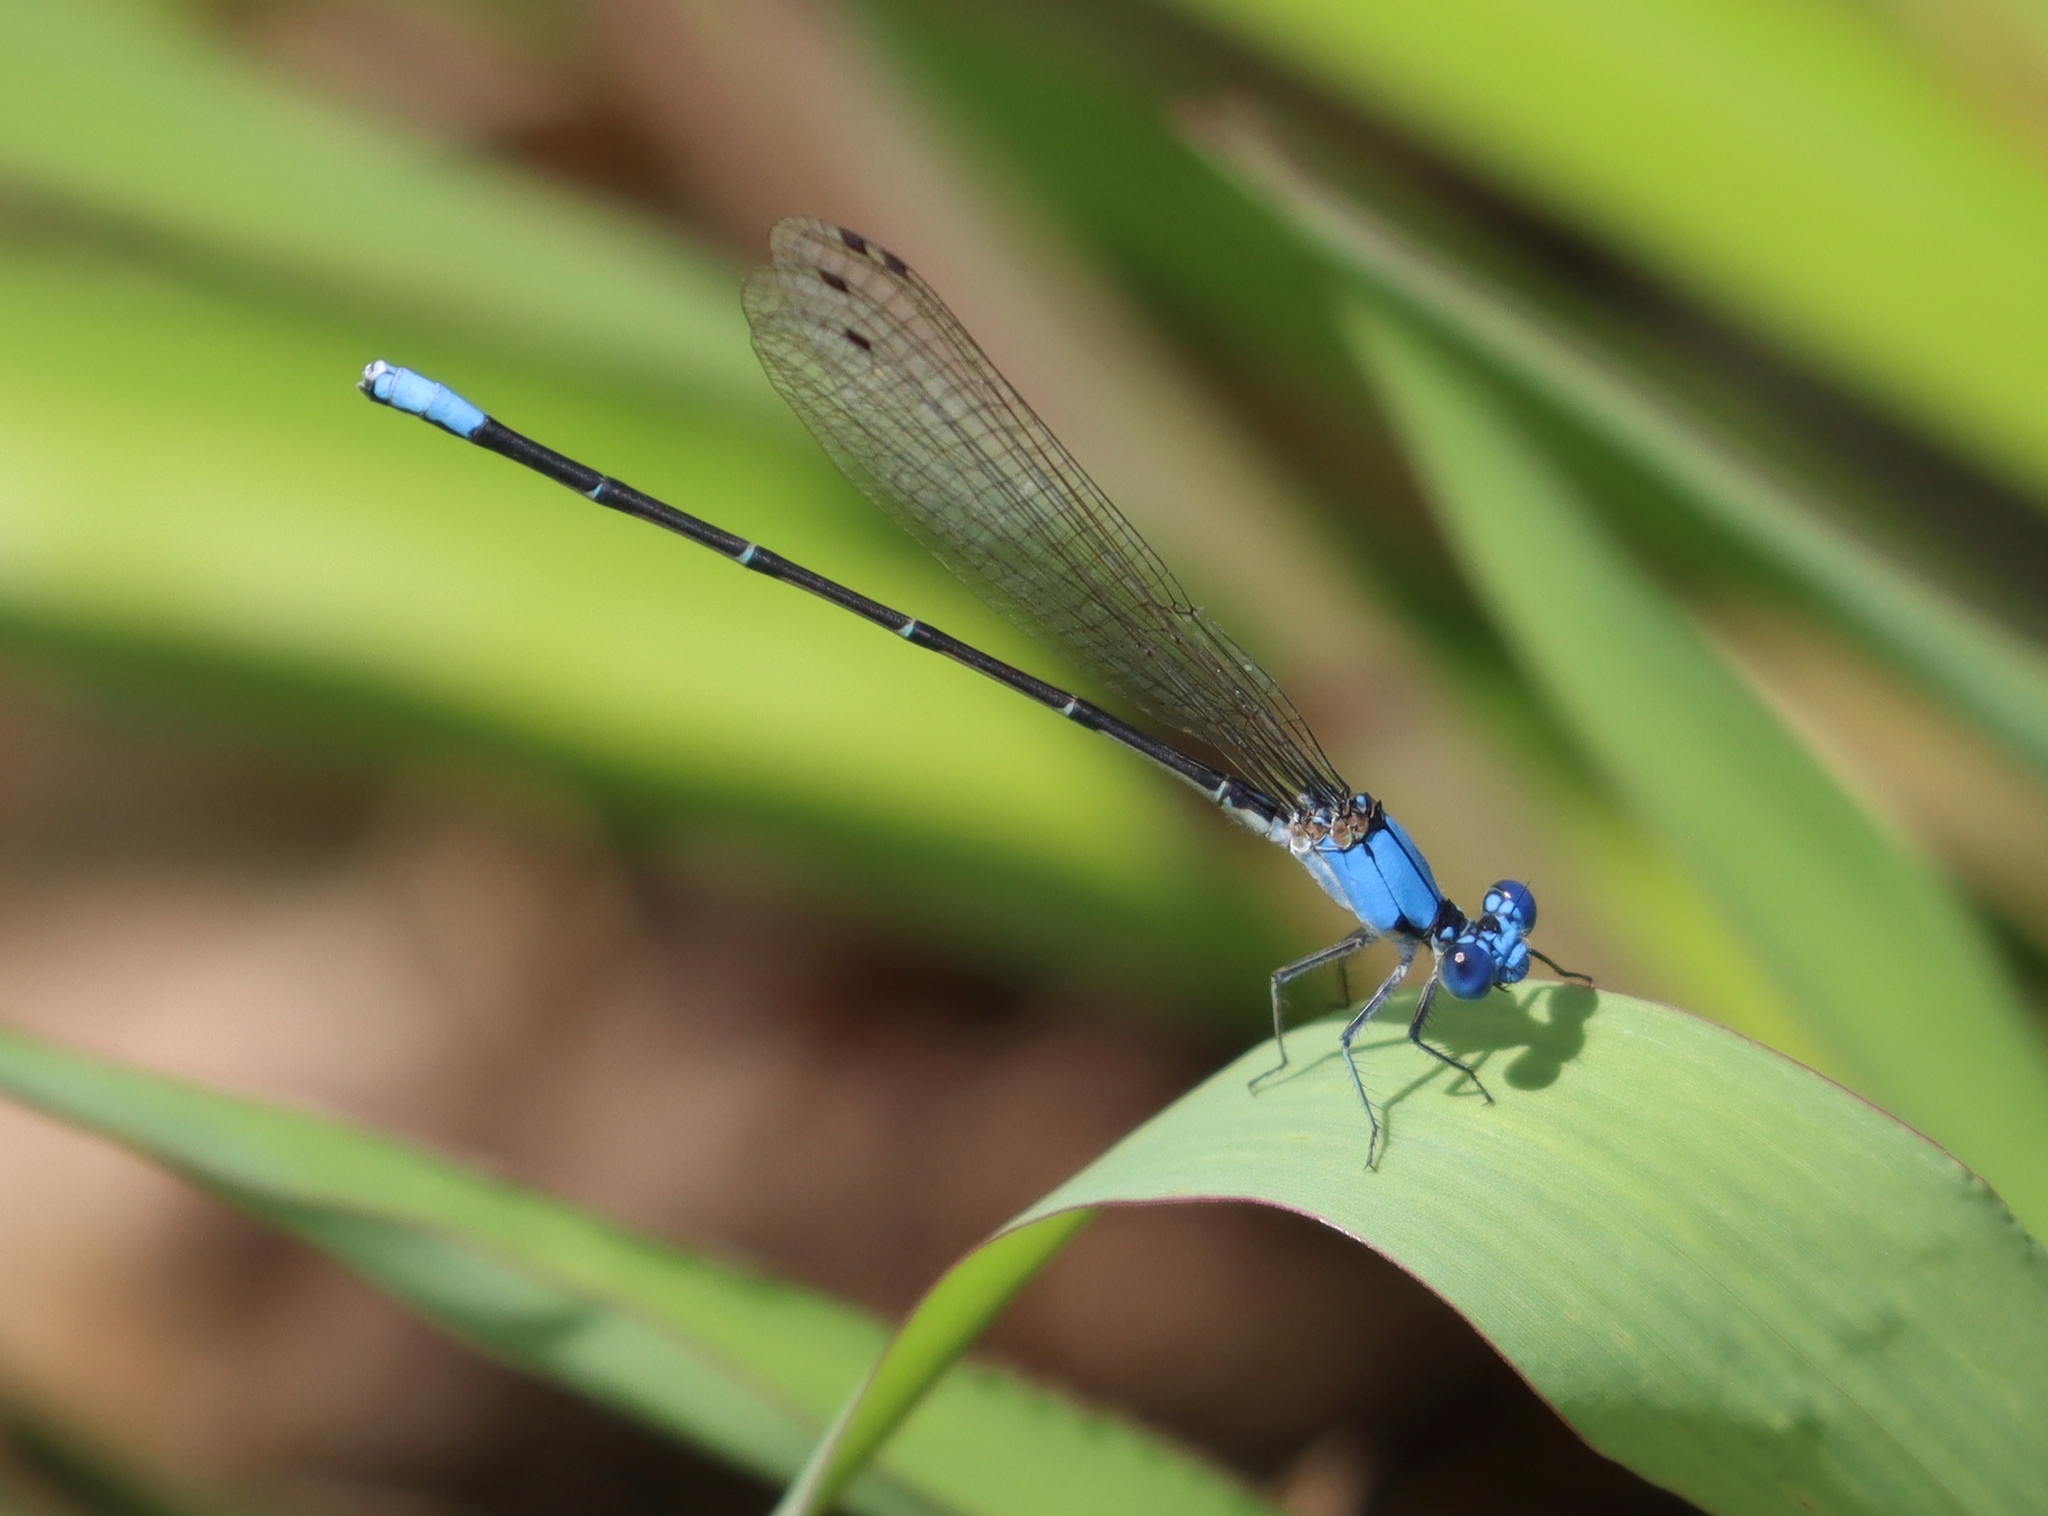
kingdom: Animalia
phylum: Arthropoda
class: Insecta
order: Odonata
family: Coenagrionidae
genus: Argia
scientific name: Argia apicalis
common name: Blue-fronted dancer
